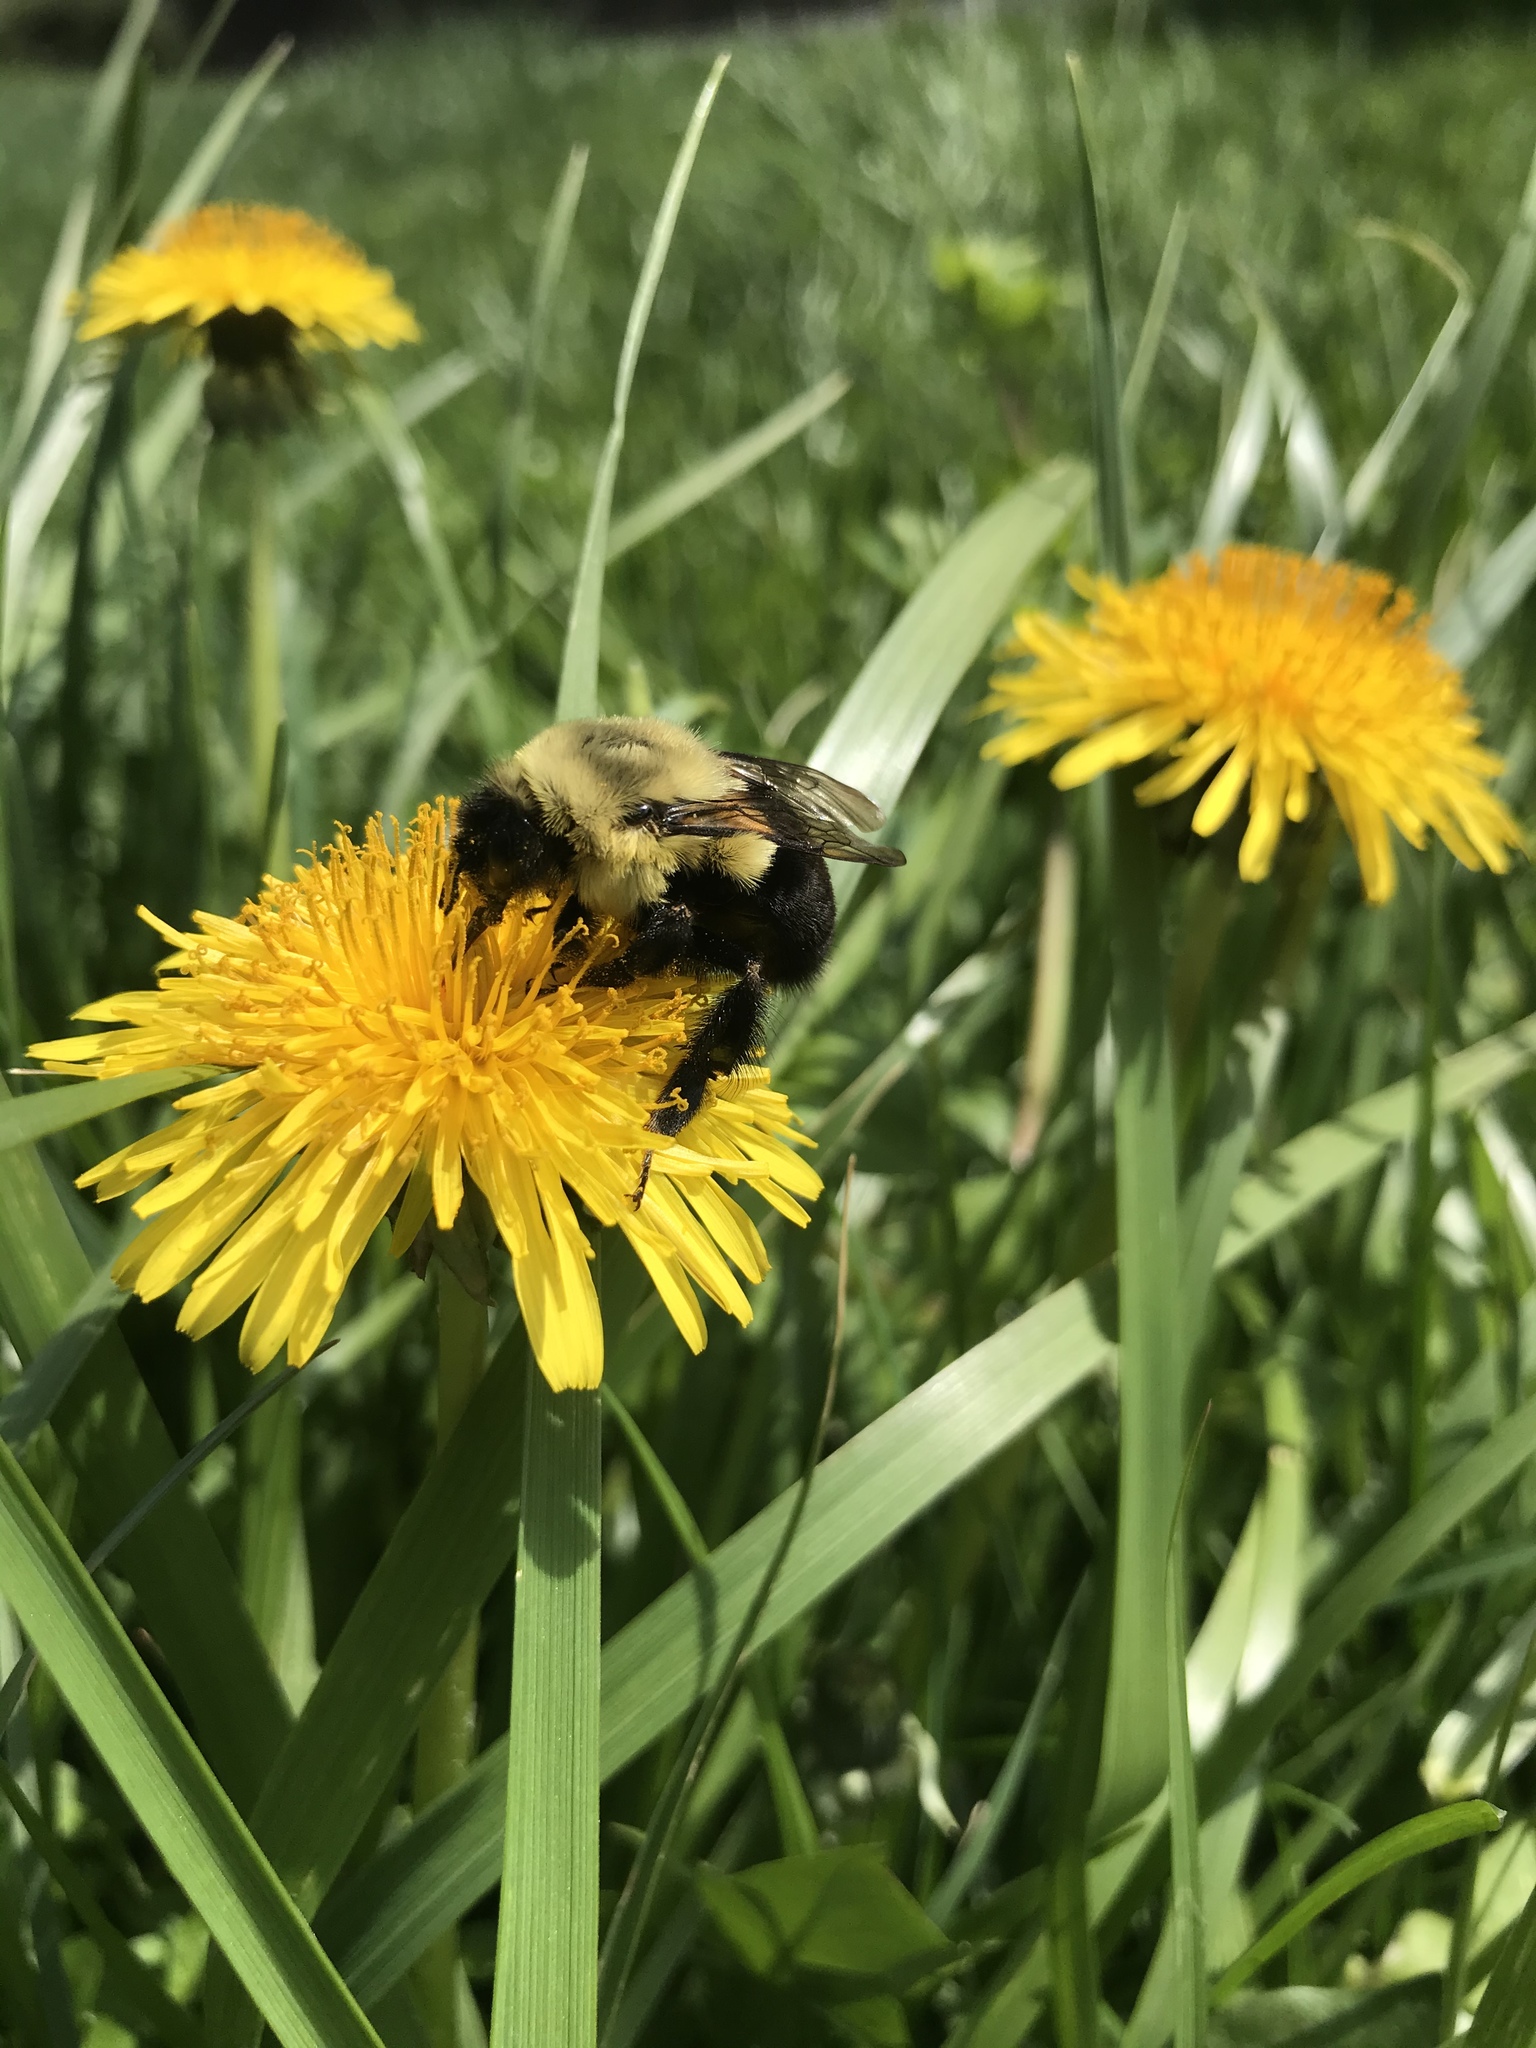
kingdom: Animalia
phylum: Arthropoda
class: Insecta
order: Hymenoptera
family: Apidae
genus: Bombus
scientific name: Bombus impatiens
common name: Common eastern bumble bee
